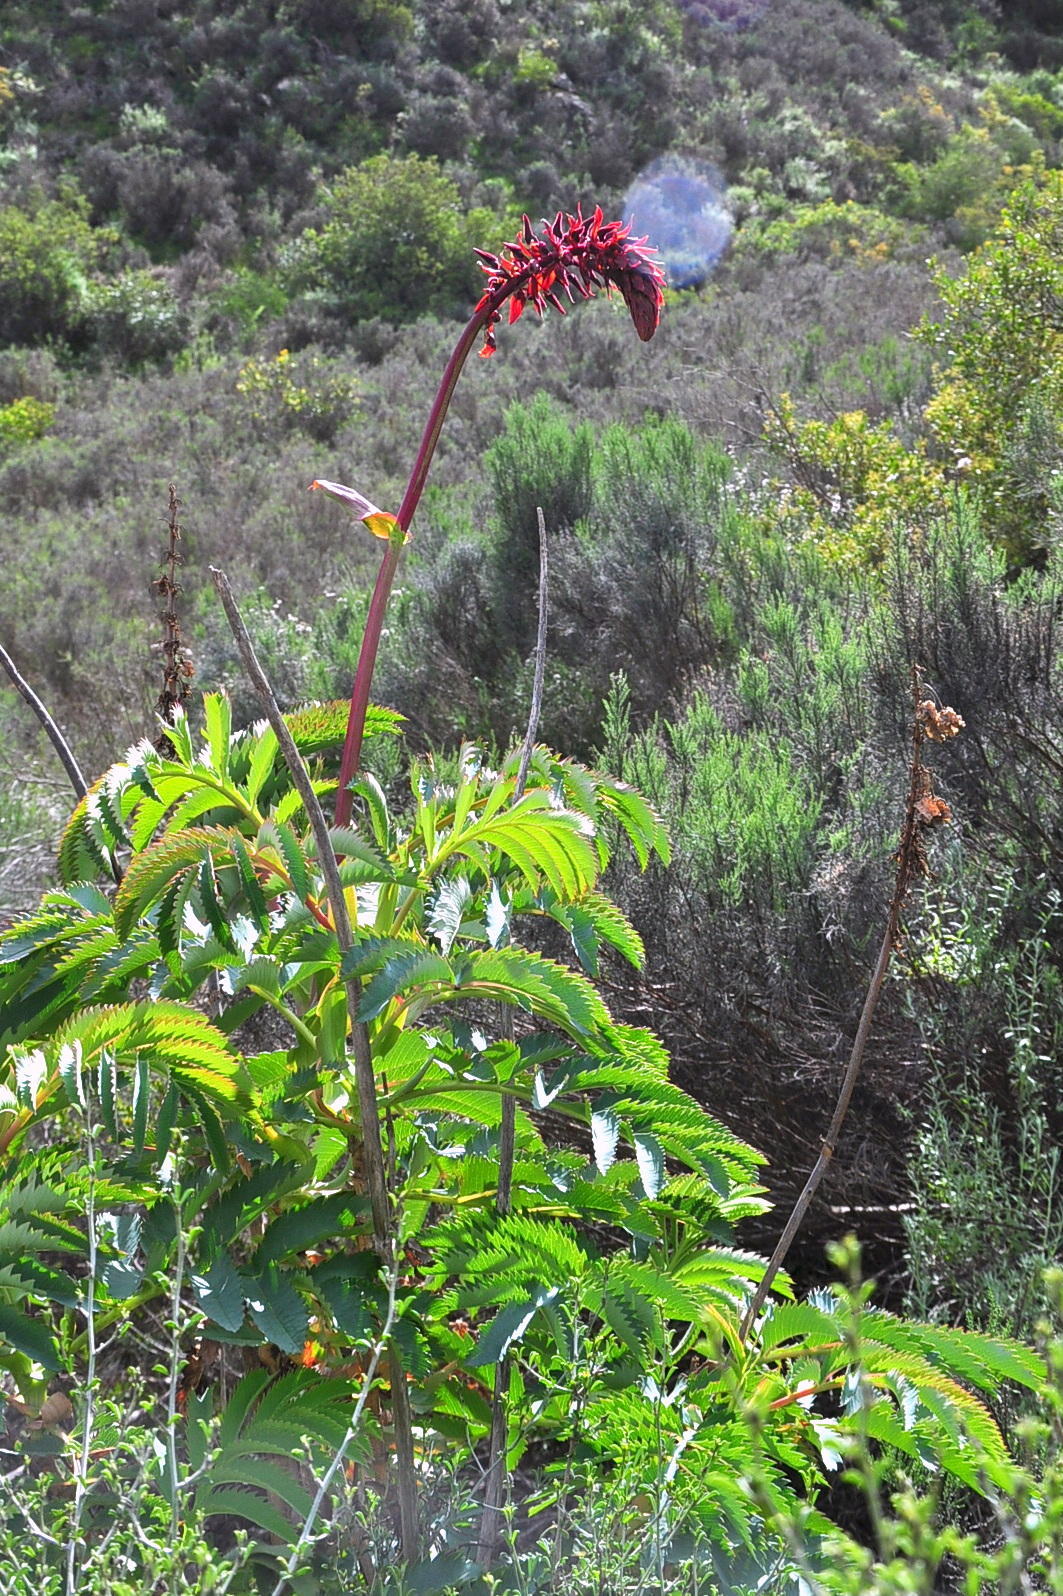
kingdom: Plantae
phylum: Tracheophyta
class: Magnoliopsida
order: Geraniales
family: Melianthaceae
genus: Melianthus
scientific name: Melianthus major
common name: Honey-flower
